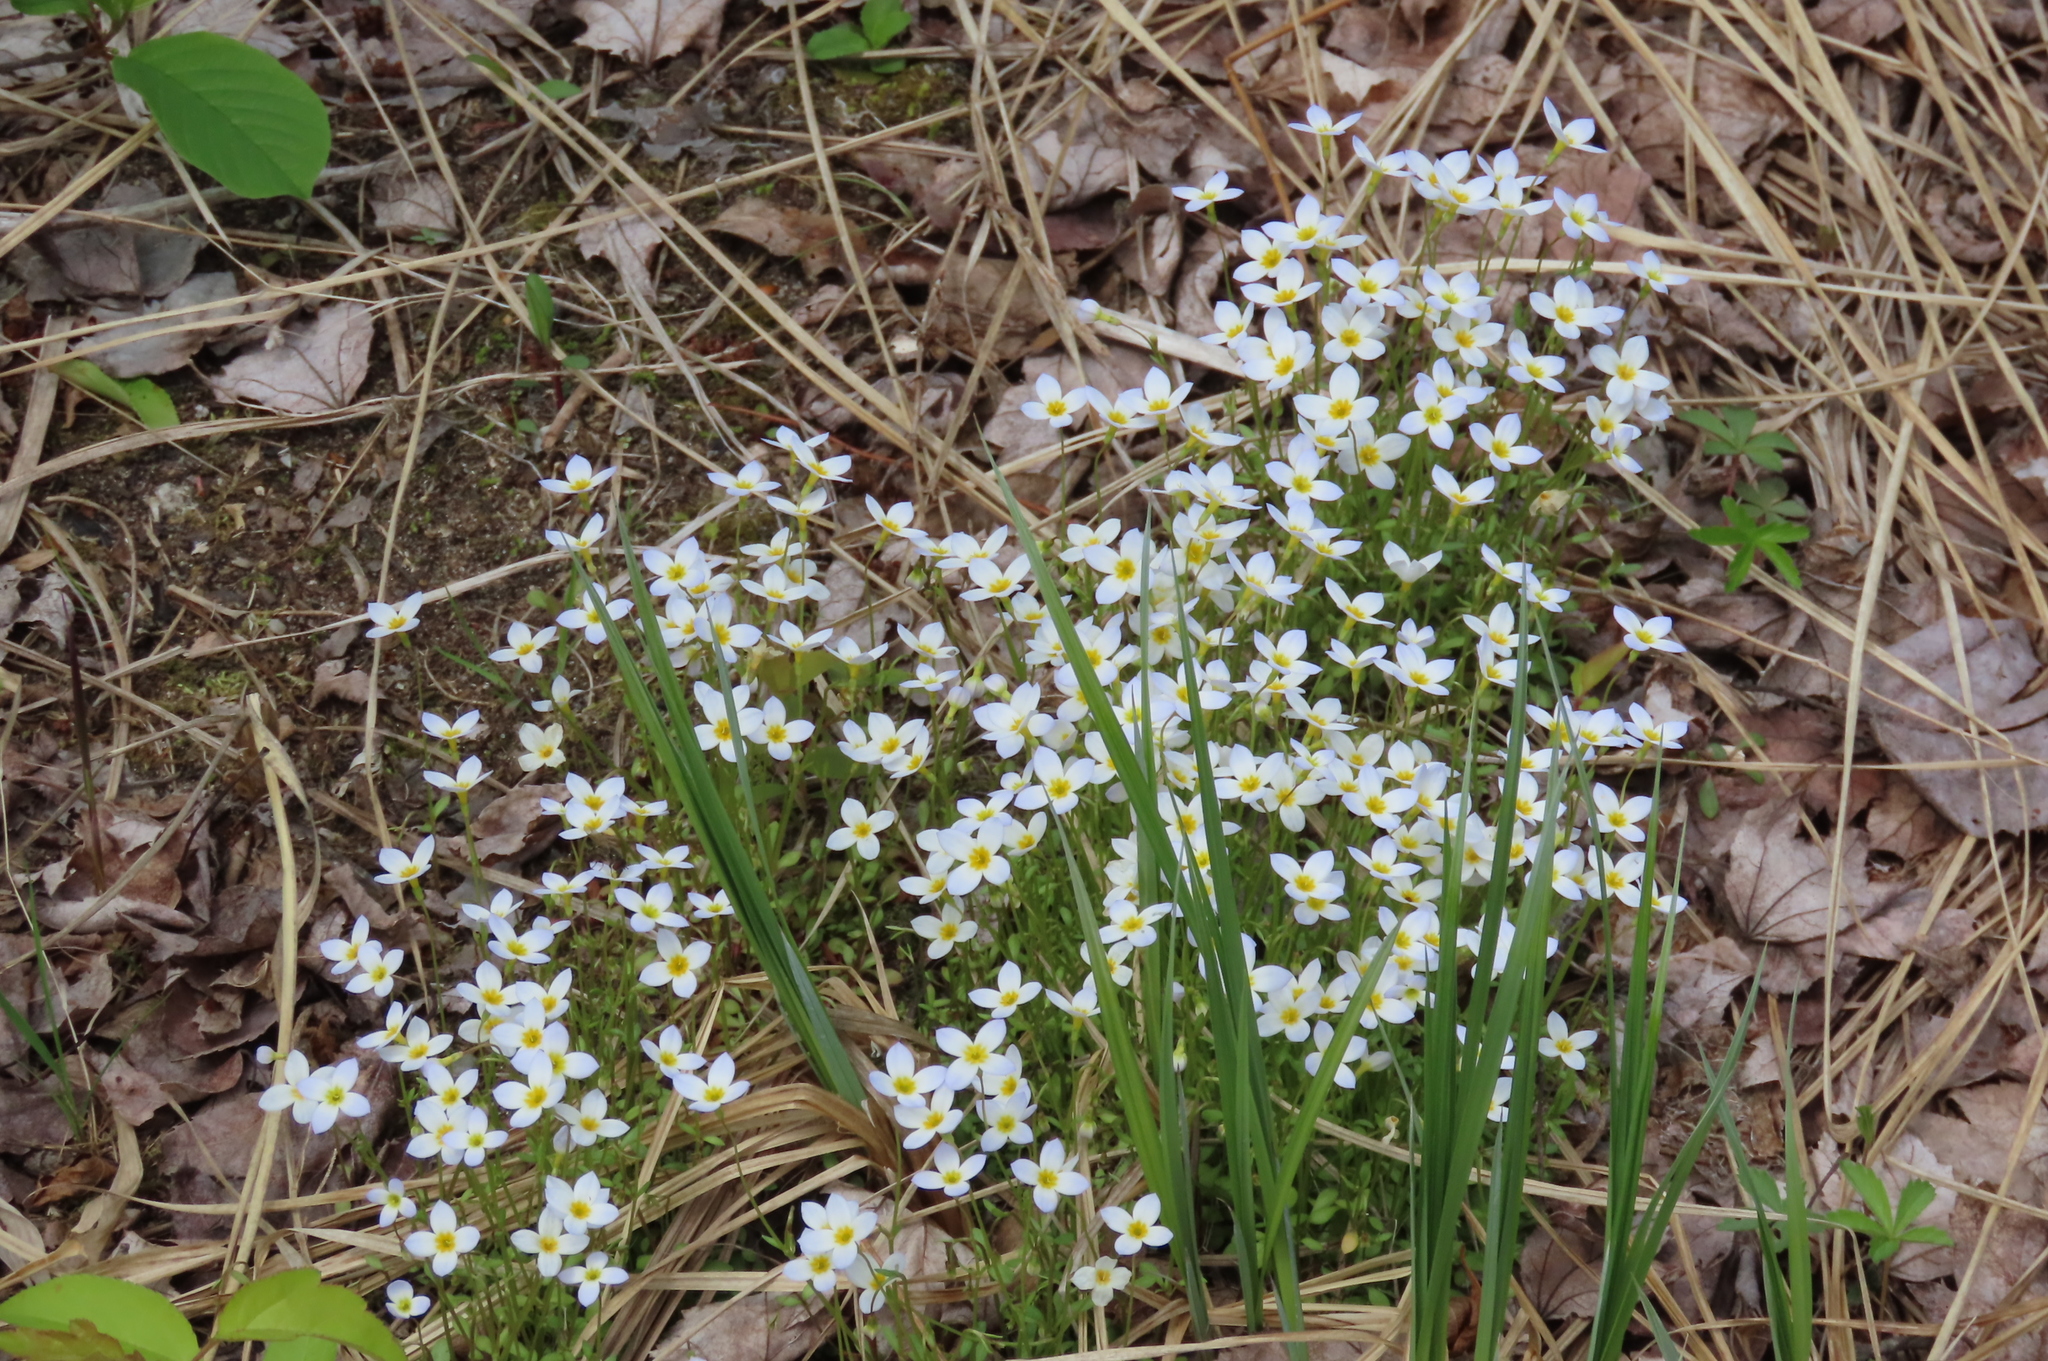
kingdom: Plantae
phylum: Tracheophyta
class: Magnoliopsida
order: Gentianales
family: Rubiaceae
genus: Houstonia
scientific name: Houstonia caerulea
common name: Bluets
